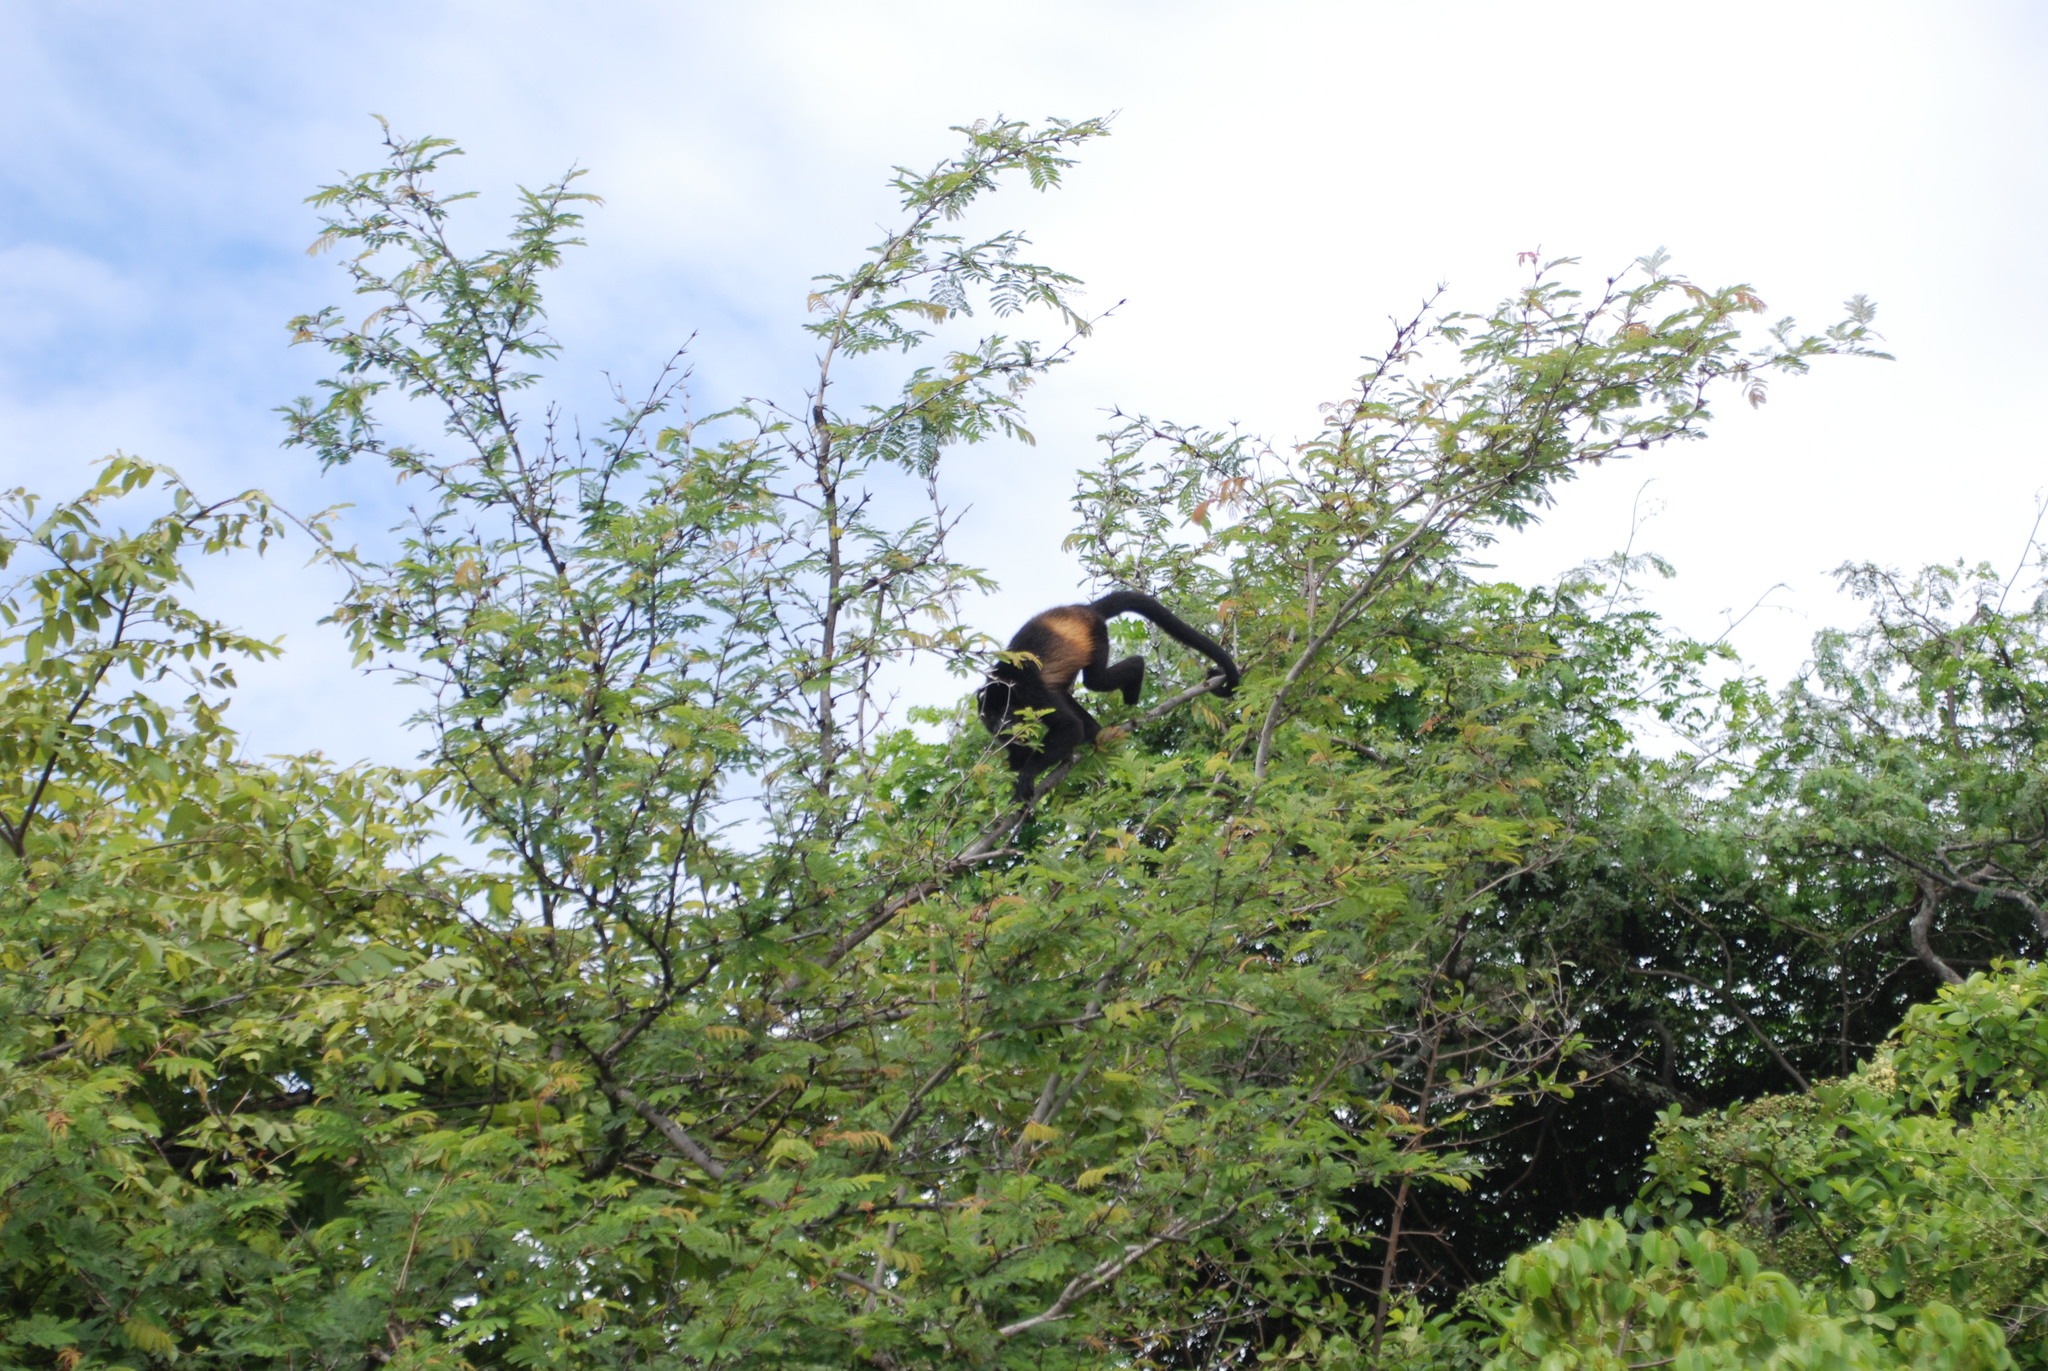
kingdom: Animalia
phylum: Chordata
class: Mammalia
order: Primates
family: Atelidae
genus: Alouatta
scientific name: Alouatta palliata
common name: Mantled howler
